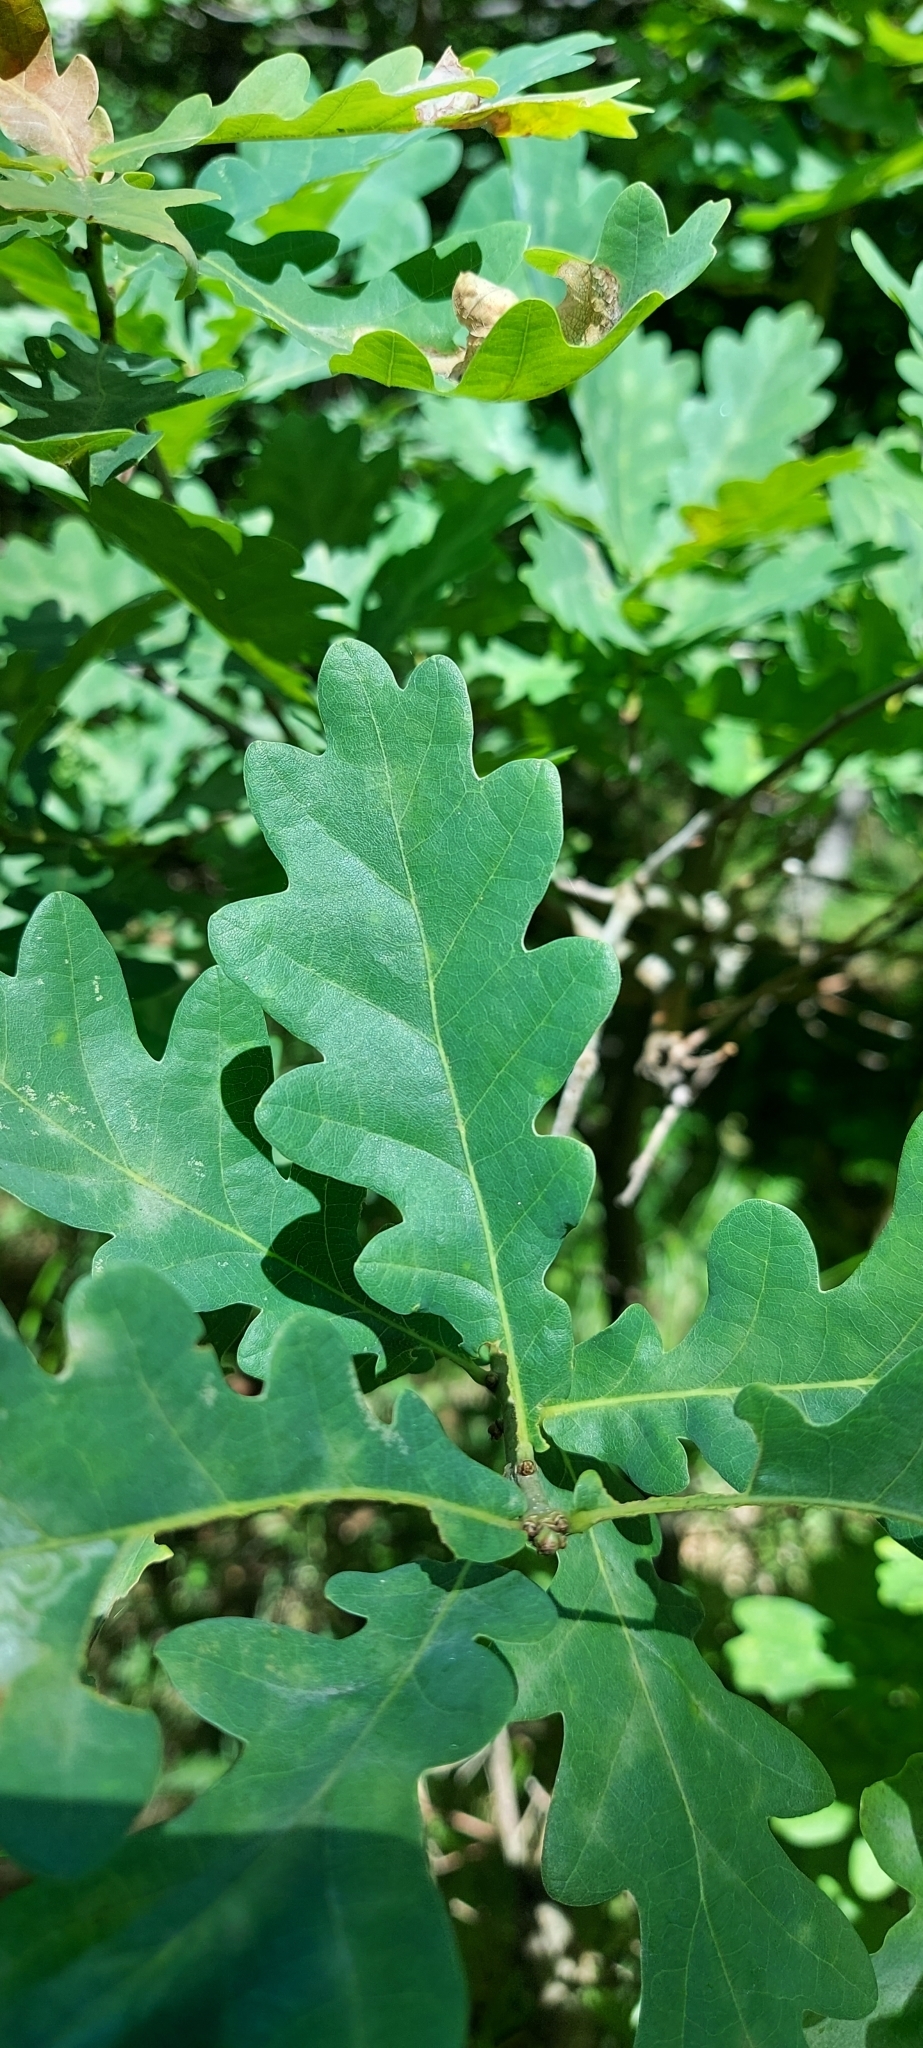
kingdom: Plantae
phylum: Tracheophyta
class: Magnoliopsida
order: Fagales
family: Fagaceae
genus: Quercus
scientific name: Quercus robur
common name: Pedunculate oak
